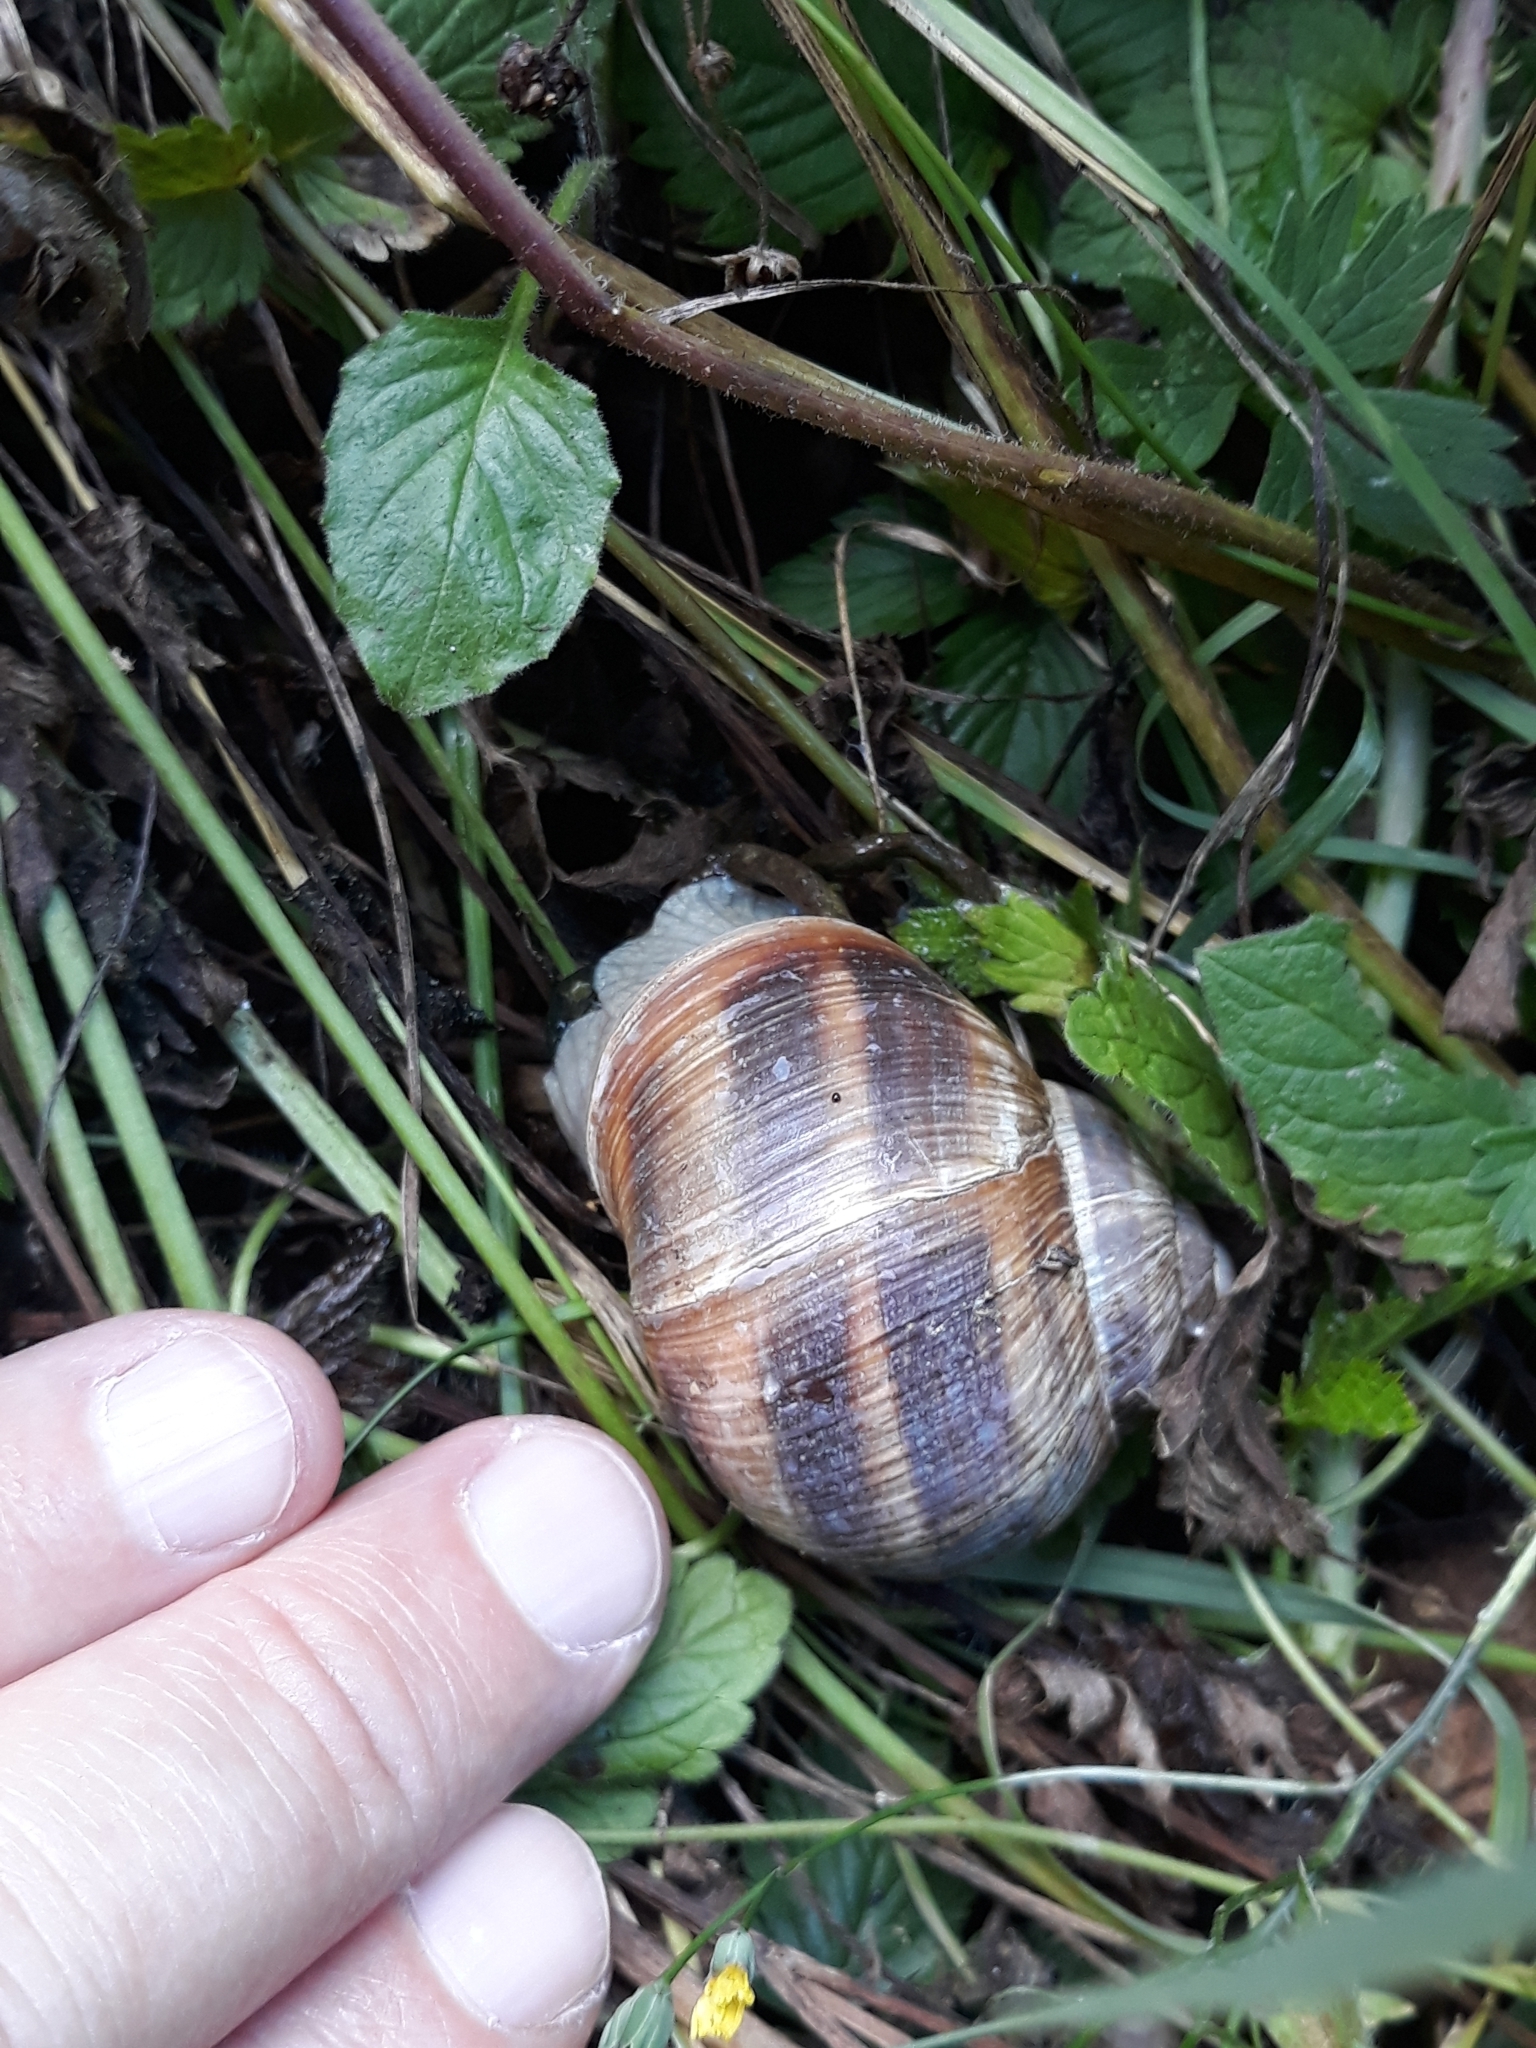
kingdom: Animalia
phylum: Mollusca
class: Gastropoda
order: Stylommatophora
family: Helicidae
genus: Helix
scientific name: Helix pomatia
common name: Roman snail
